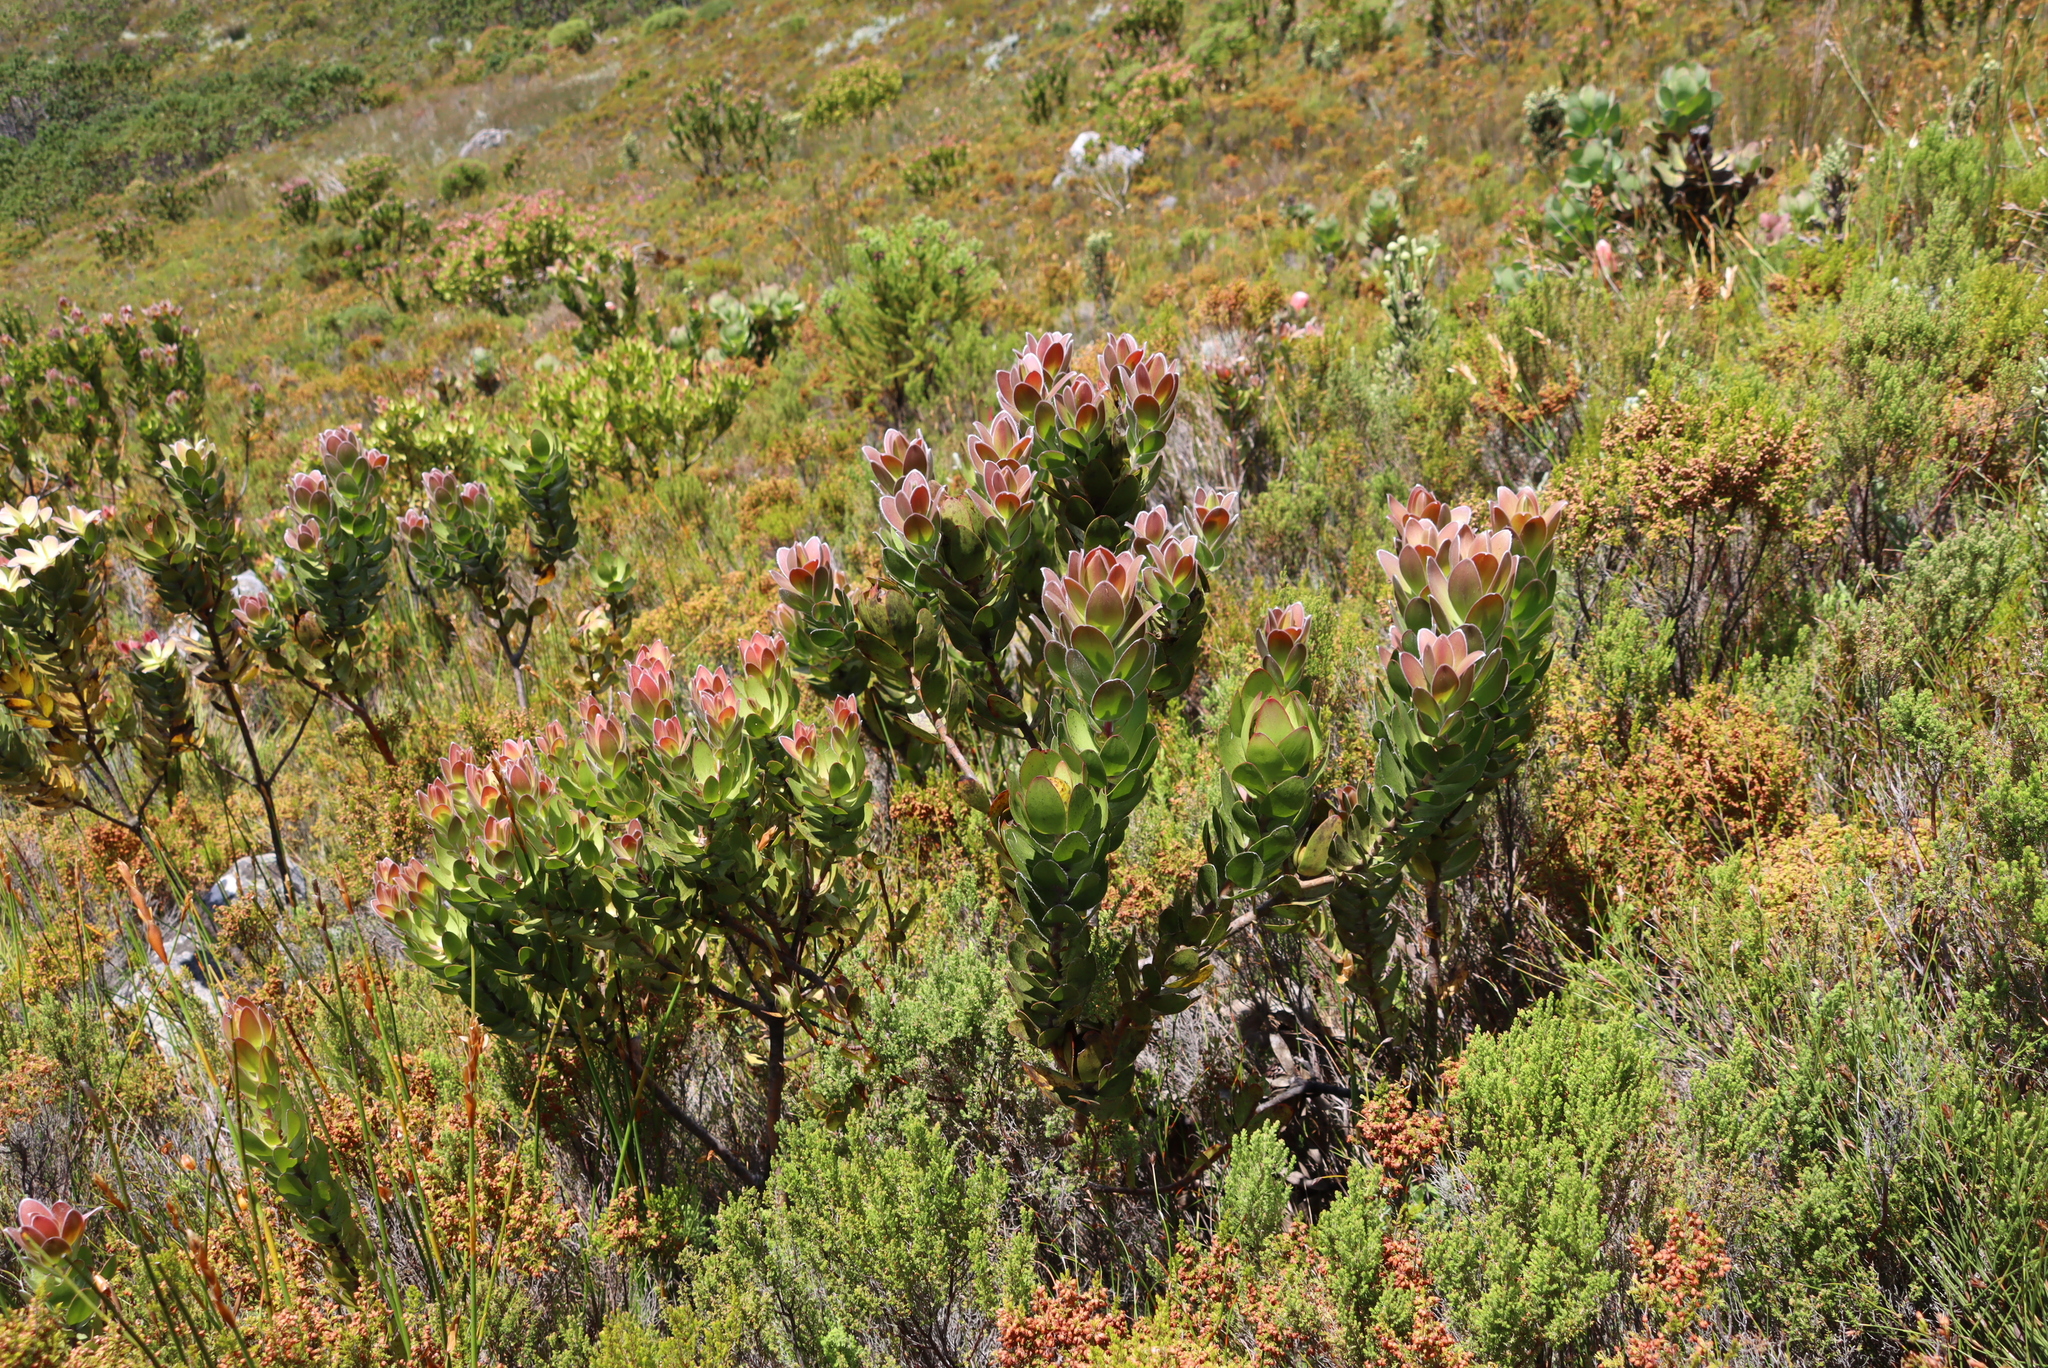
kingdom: Plantae
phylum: Tracheophyta
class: Magnoliopsida
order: Proteales
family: Proteaceae
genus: Leucadendron
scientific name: Leucadendron gandogeri
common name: Broad-leaf conebush
